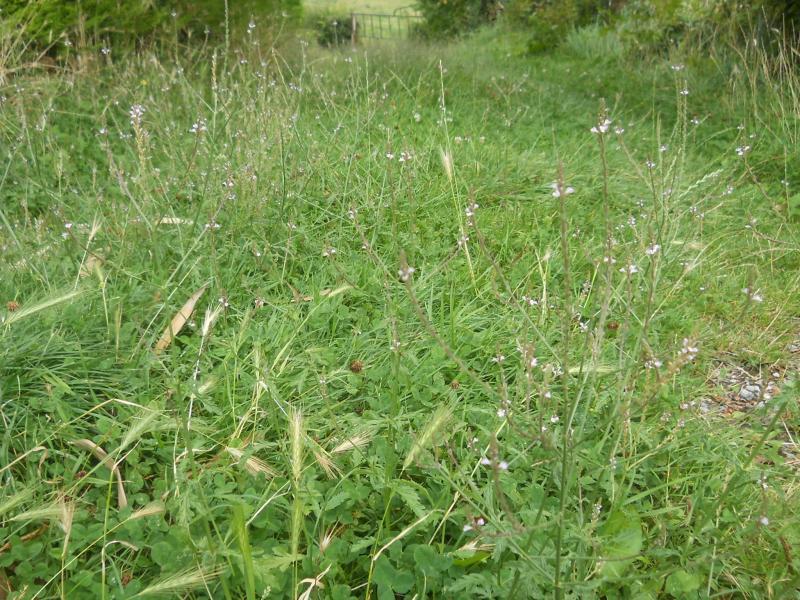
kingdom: Plantae
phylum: Tracheophyta
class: Magnoliopsida
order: Lamiales
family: Verbenaceae
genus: Verbena
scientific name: Verbena officinalis
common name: Vervain
